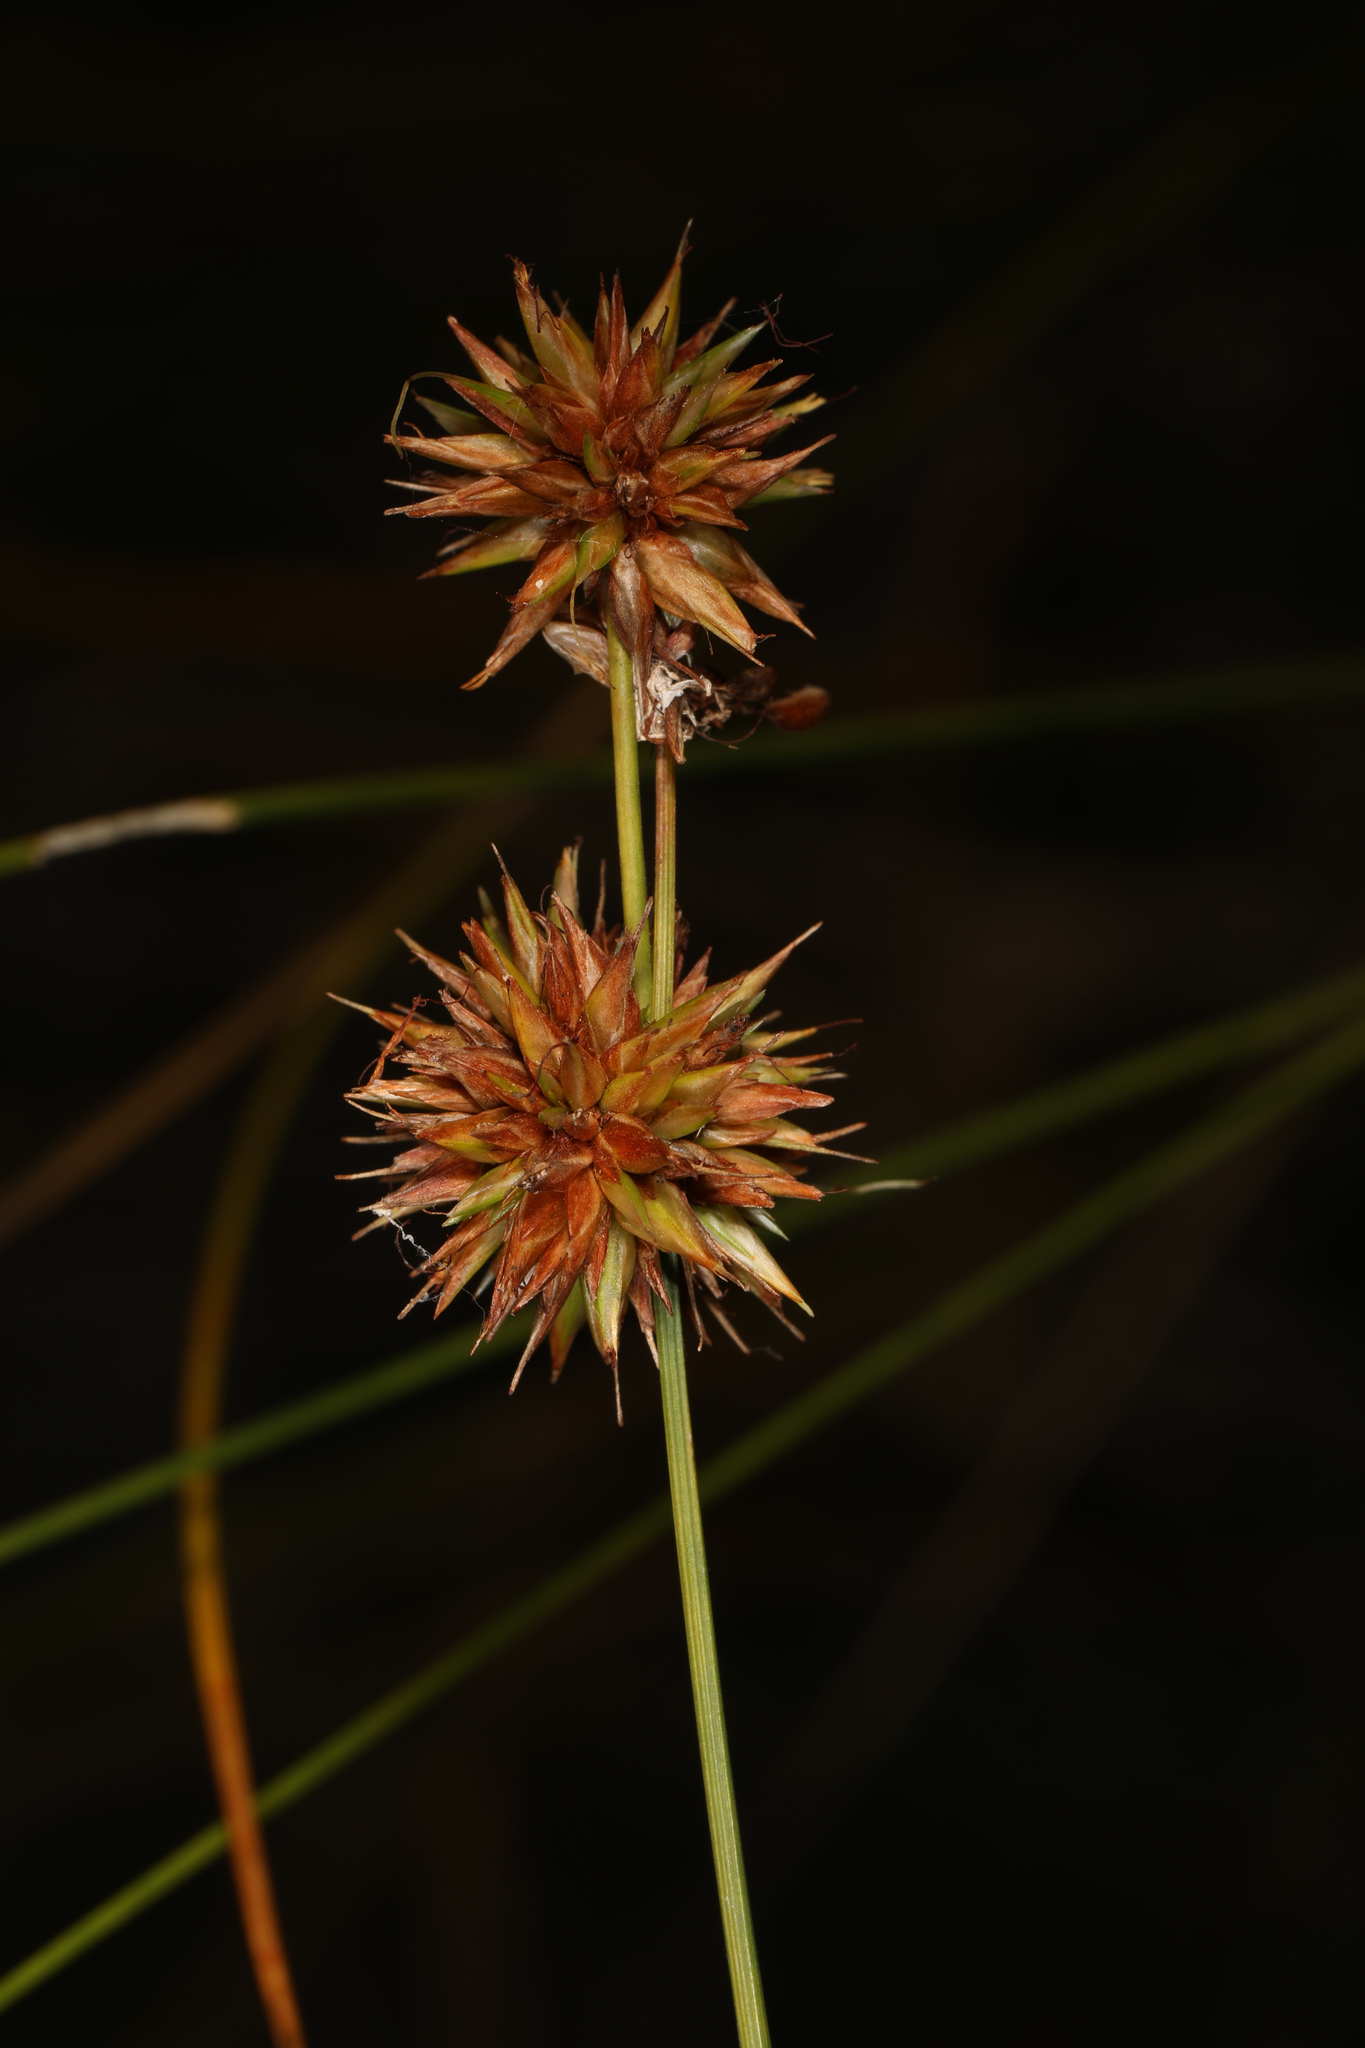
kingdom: Plantae
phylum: Tracheophyta
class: Liliopsida
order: Poales
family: Cyperaceae
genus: Rhynchospora
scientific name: Rhynchospora tracyi
